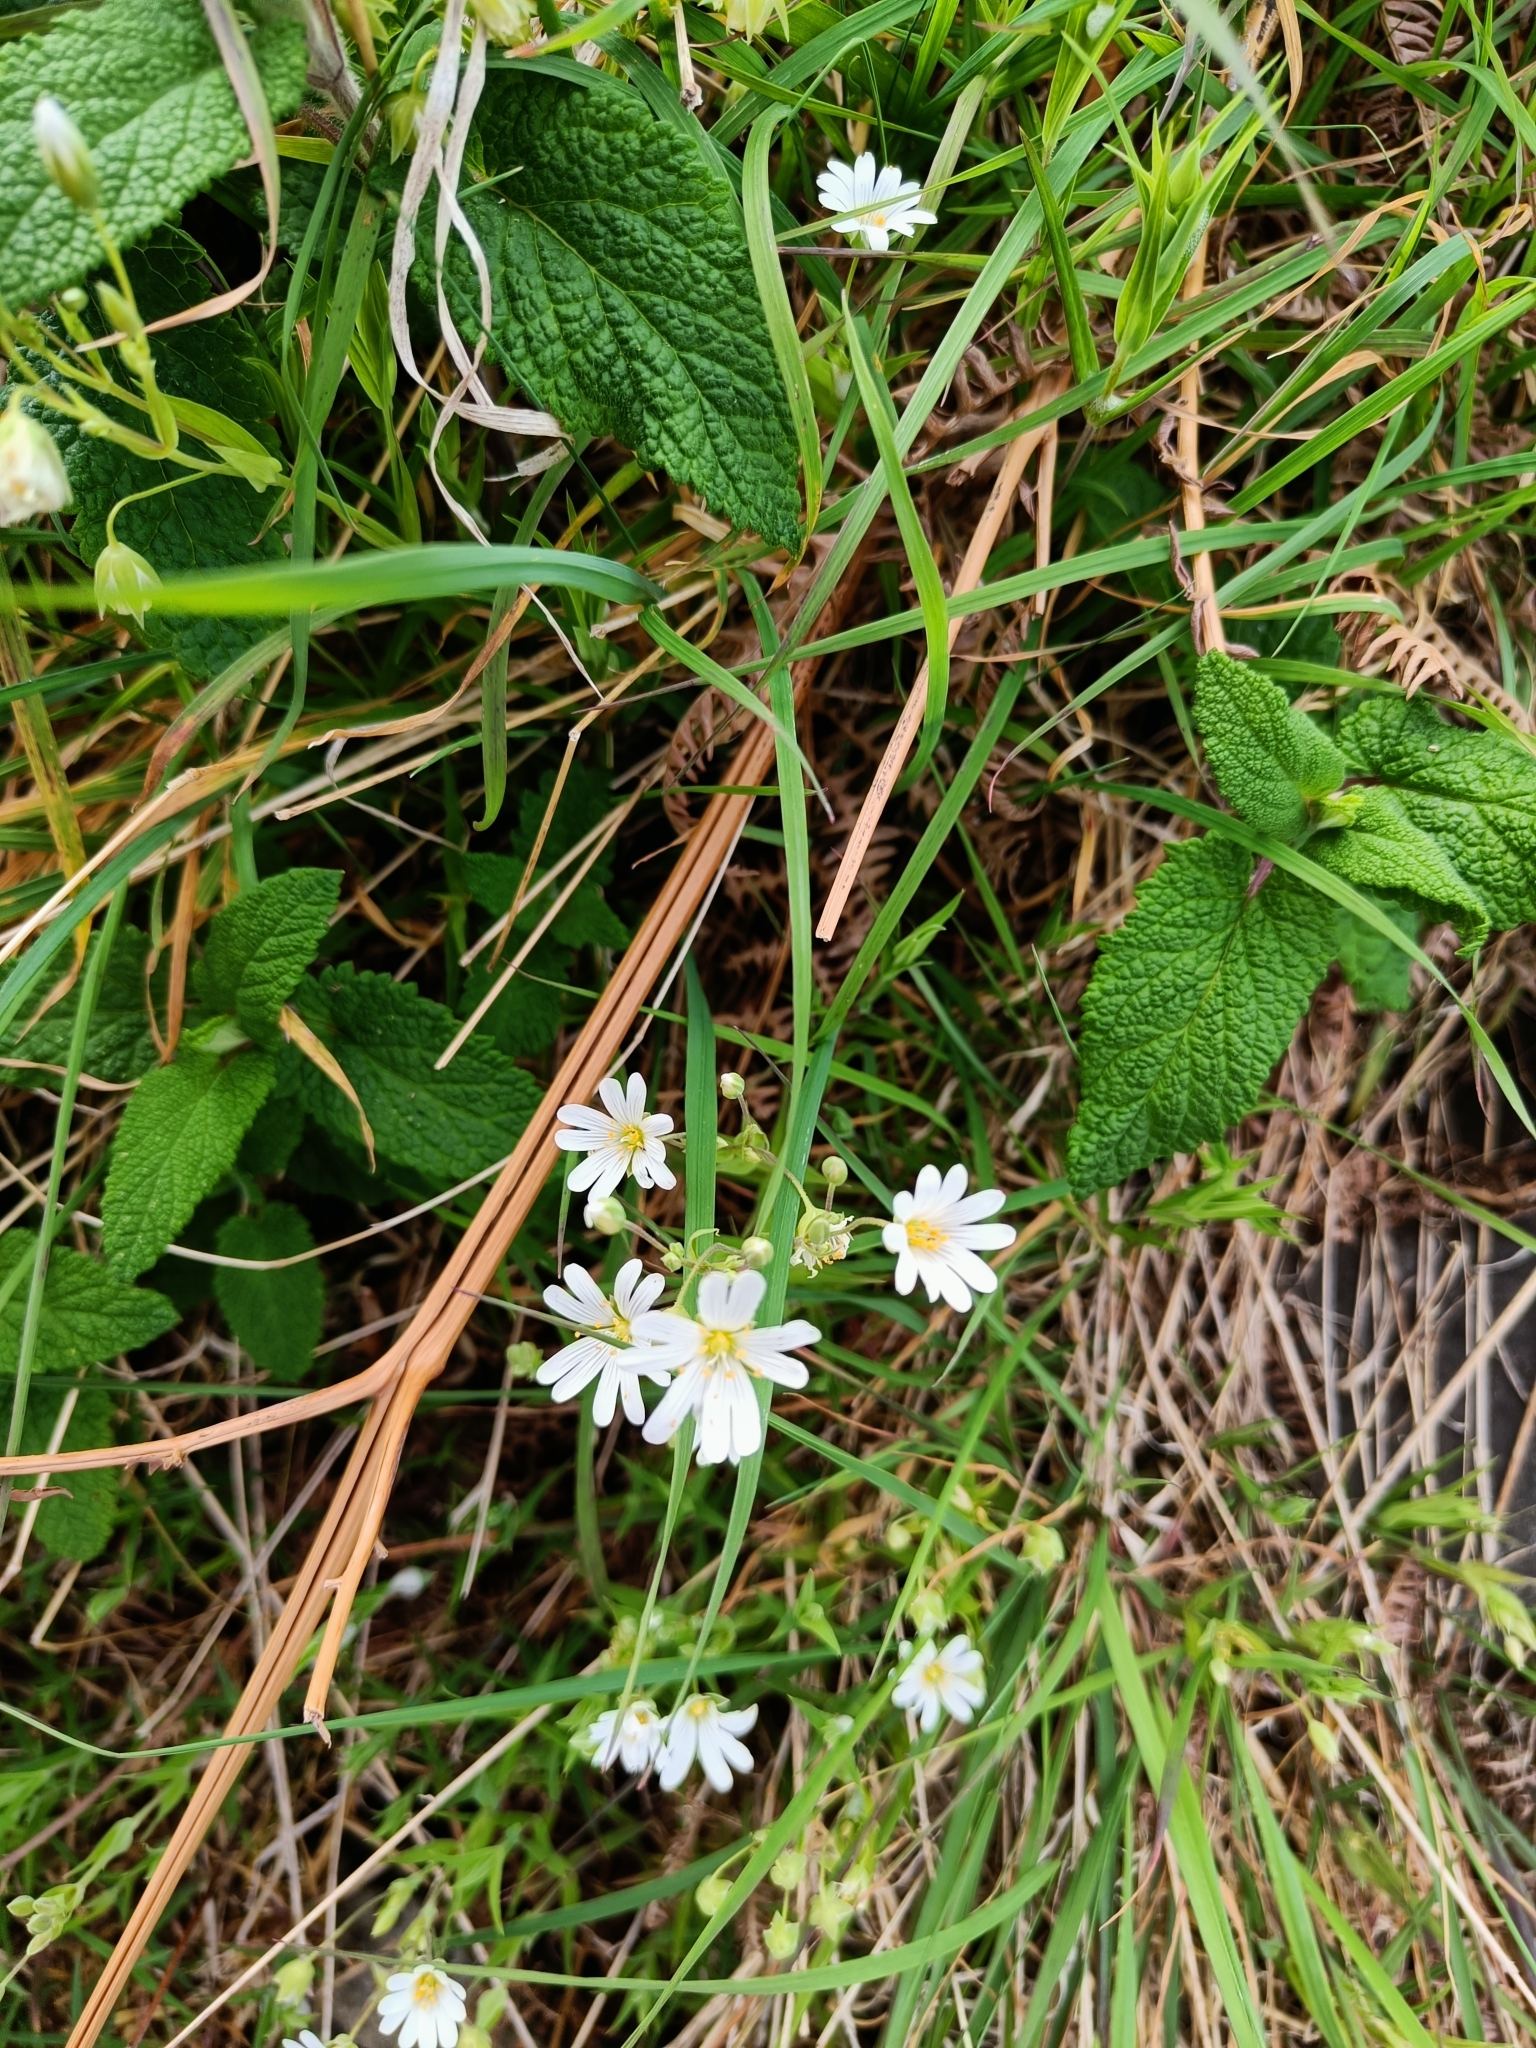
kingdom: Plantae
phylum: Tracheophyta
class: Magnoliopsida
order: Caryophyllales
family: Caryophyllaceae
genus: Rabelera
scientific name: Rabelera holostea
